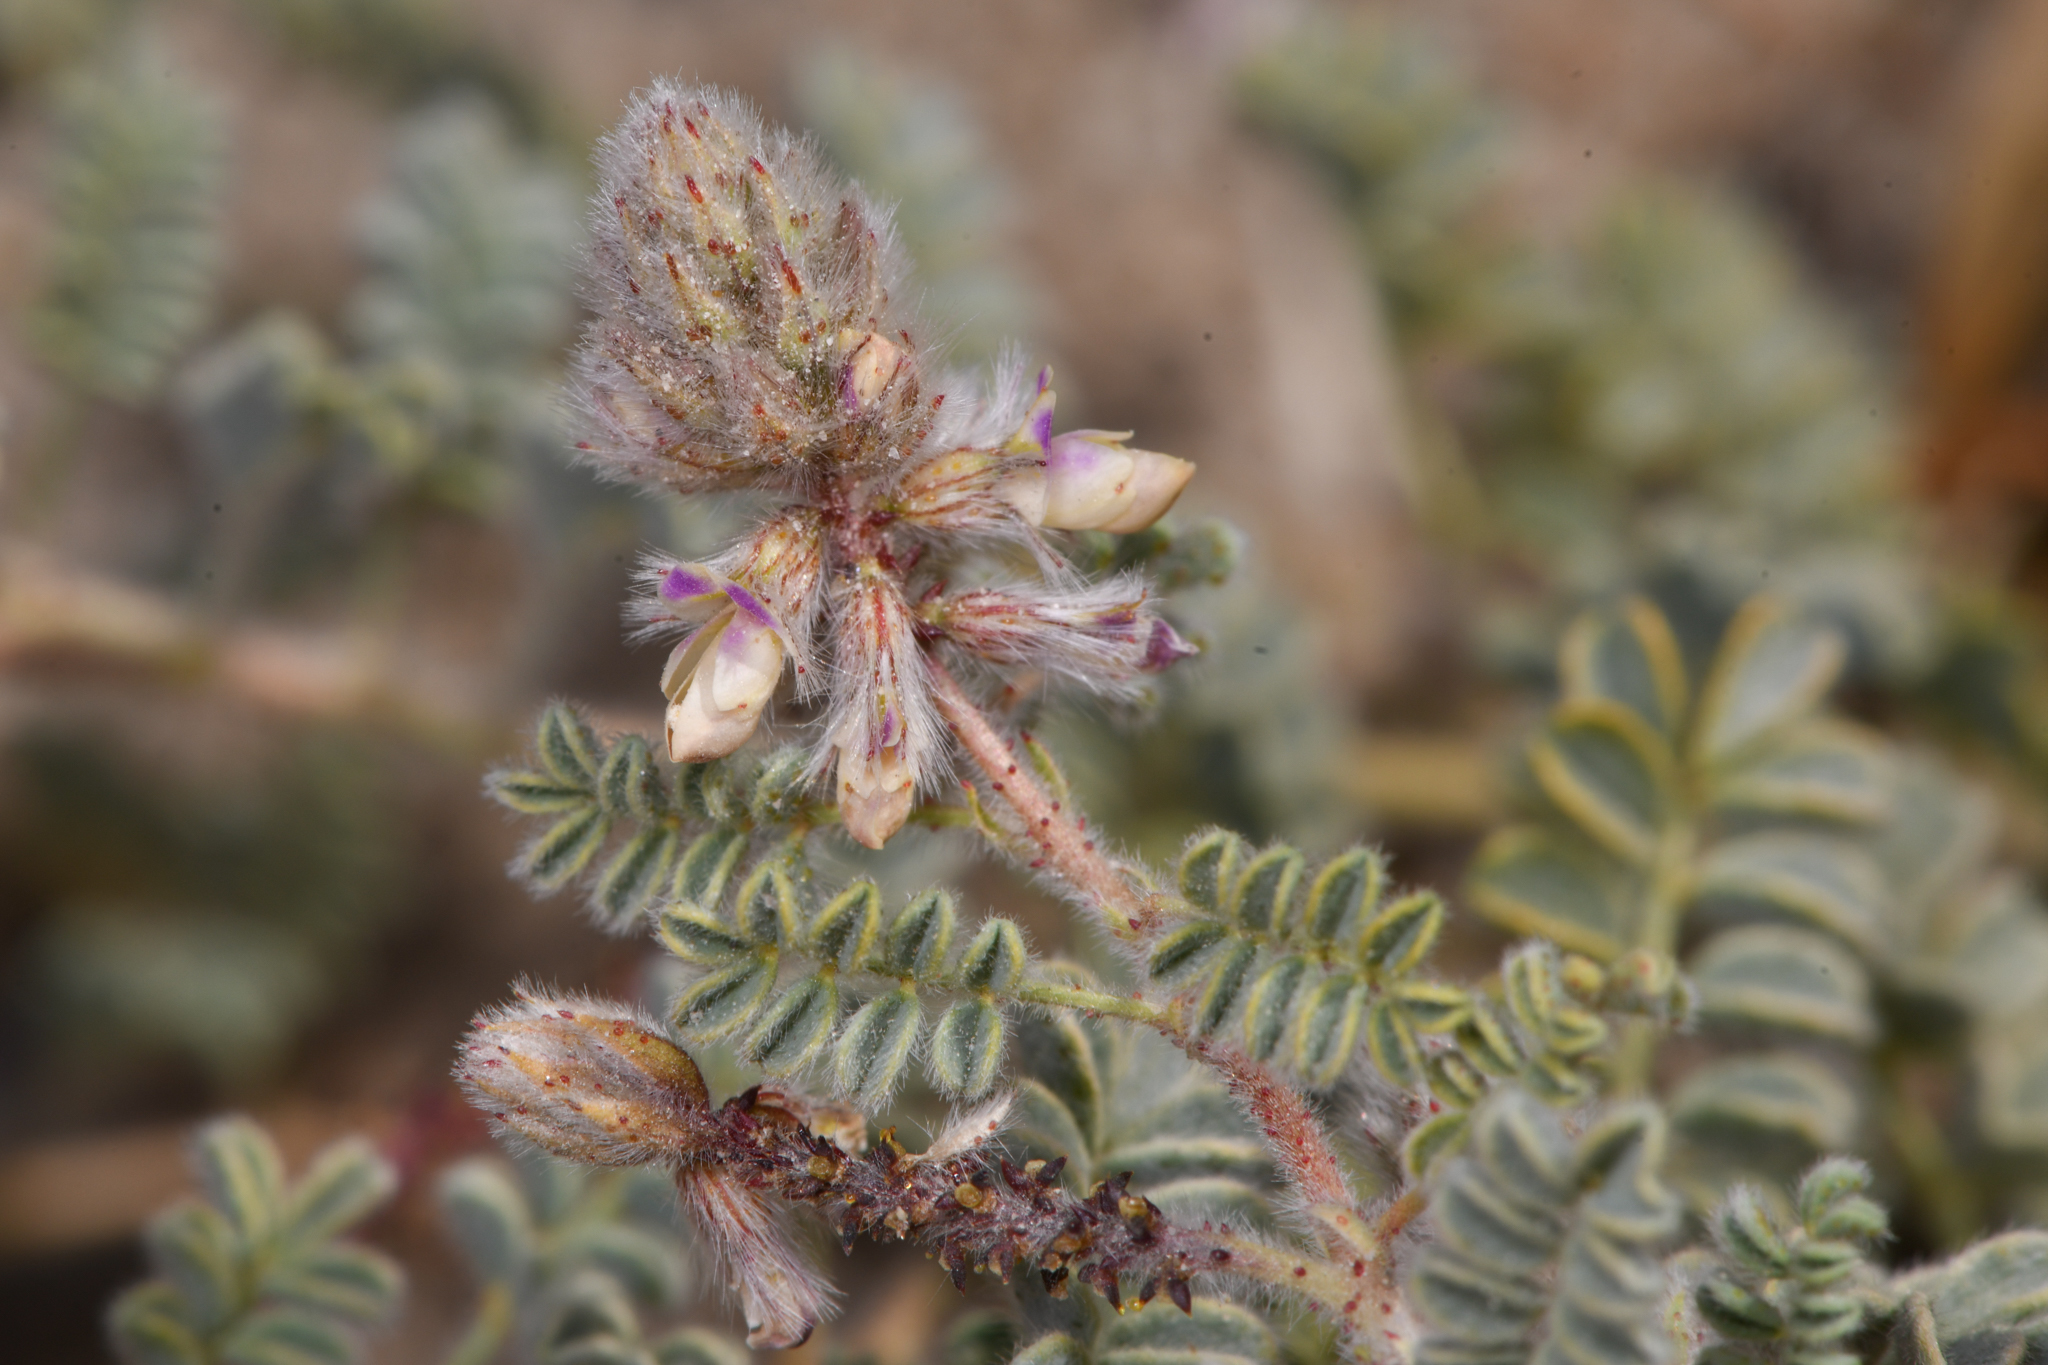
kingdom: Plantae
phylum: Tracheophyta
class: Magnoliopsida
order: Fabales
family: Fabaceae
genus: Dalea
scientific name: Dalea mollis
